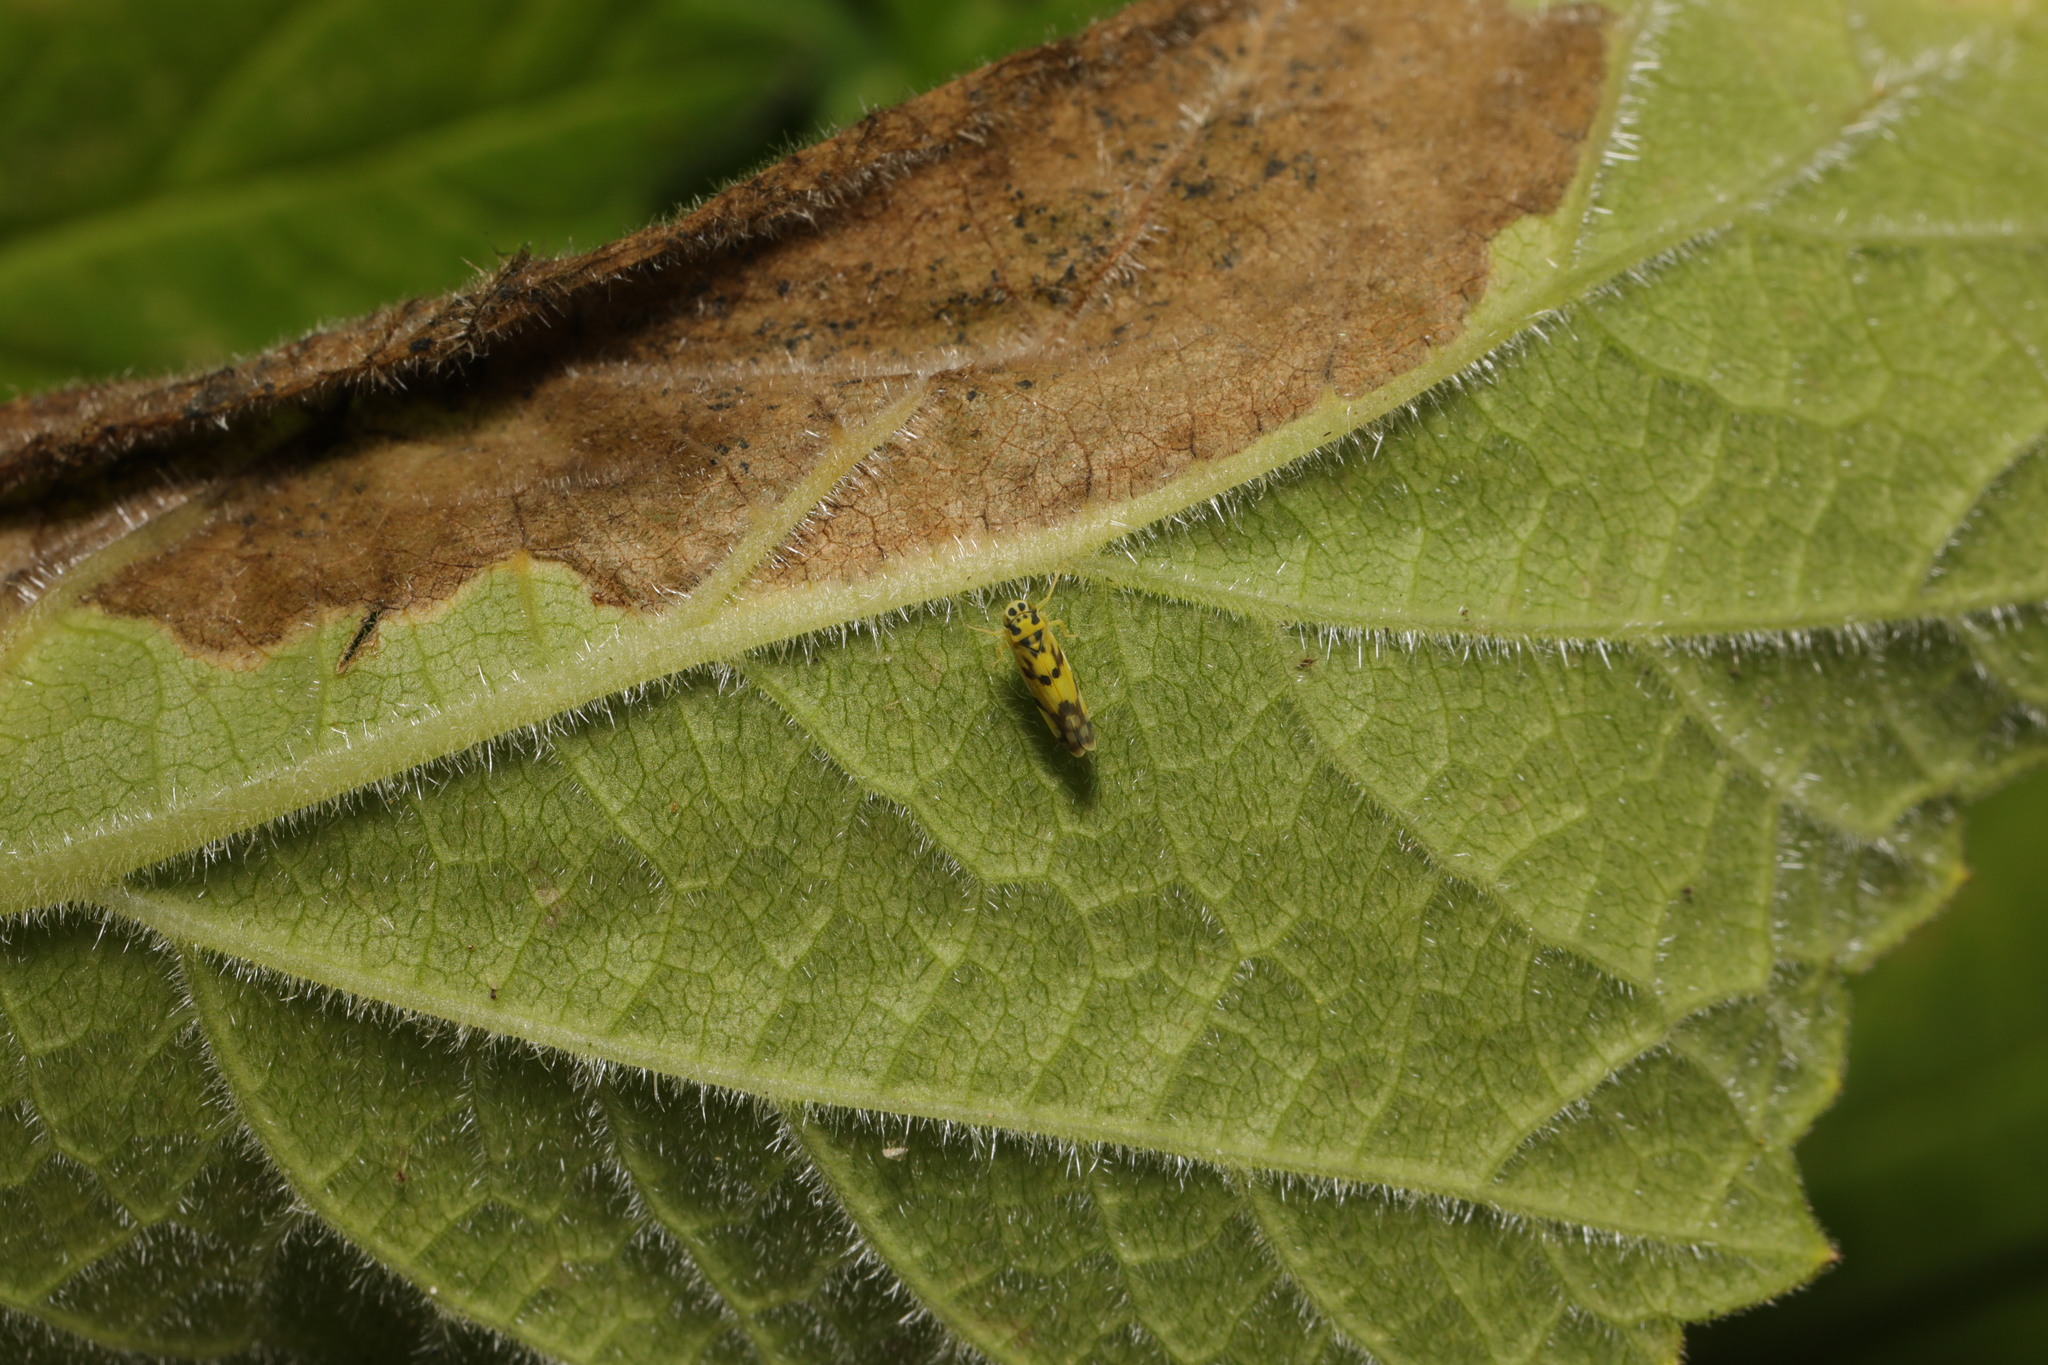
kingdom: Animalia
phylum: Arthropoda
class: Insecta
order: Hemiptera
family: Cicadellidae
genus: Eupteryx
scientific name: Eupteryx aurata
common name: Leafhopper
